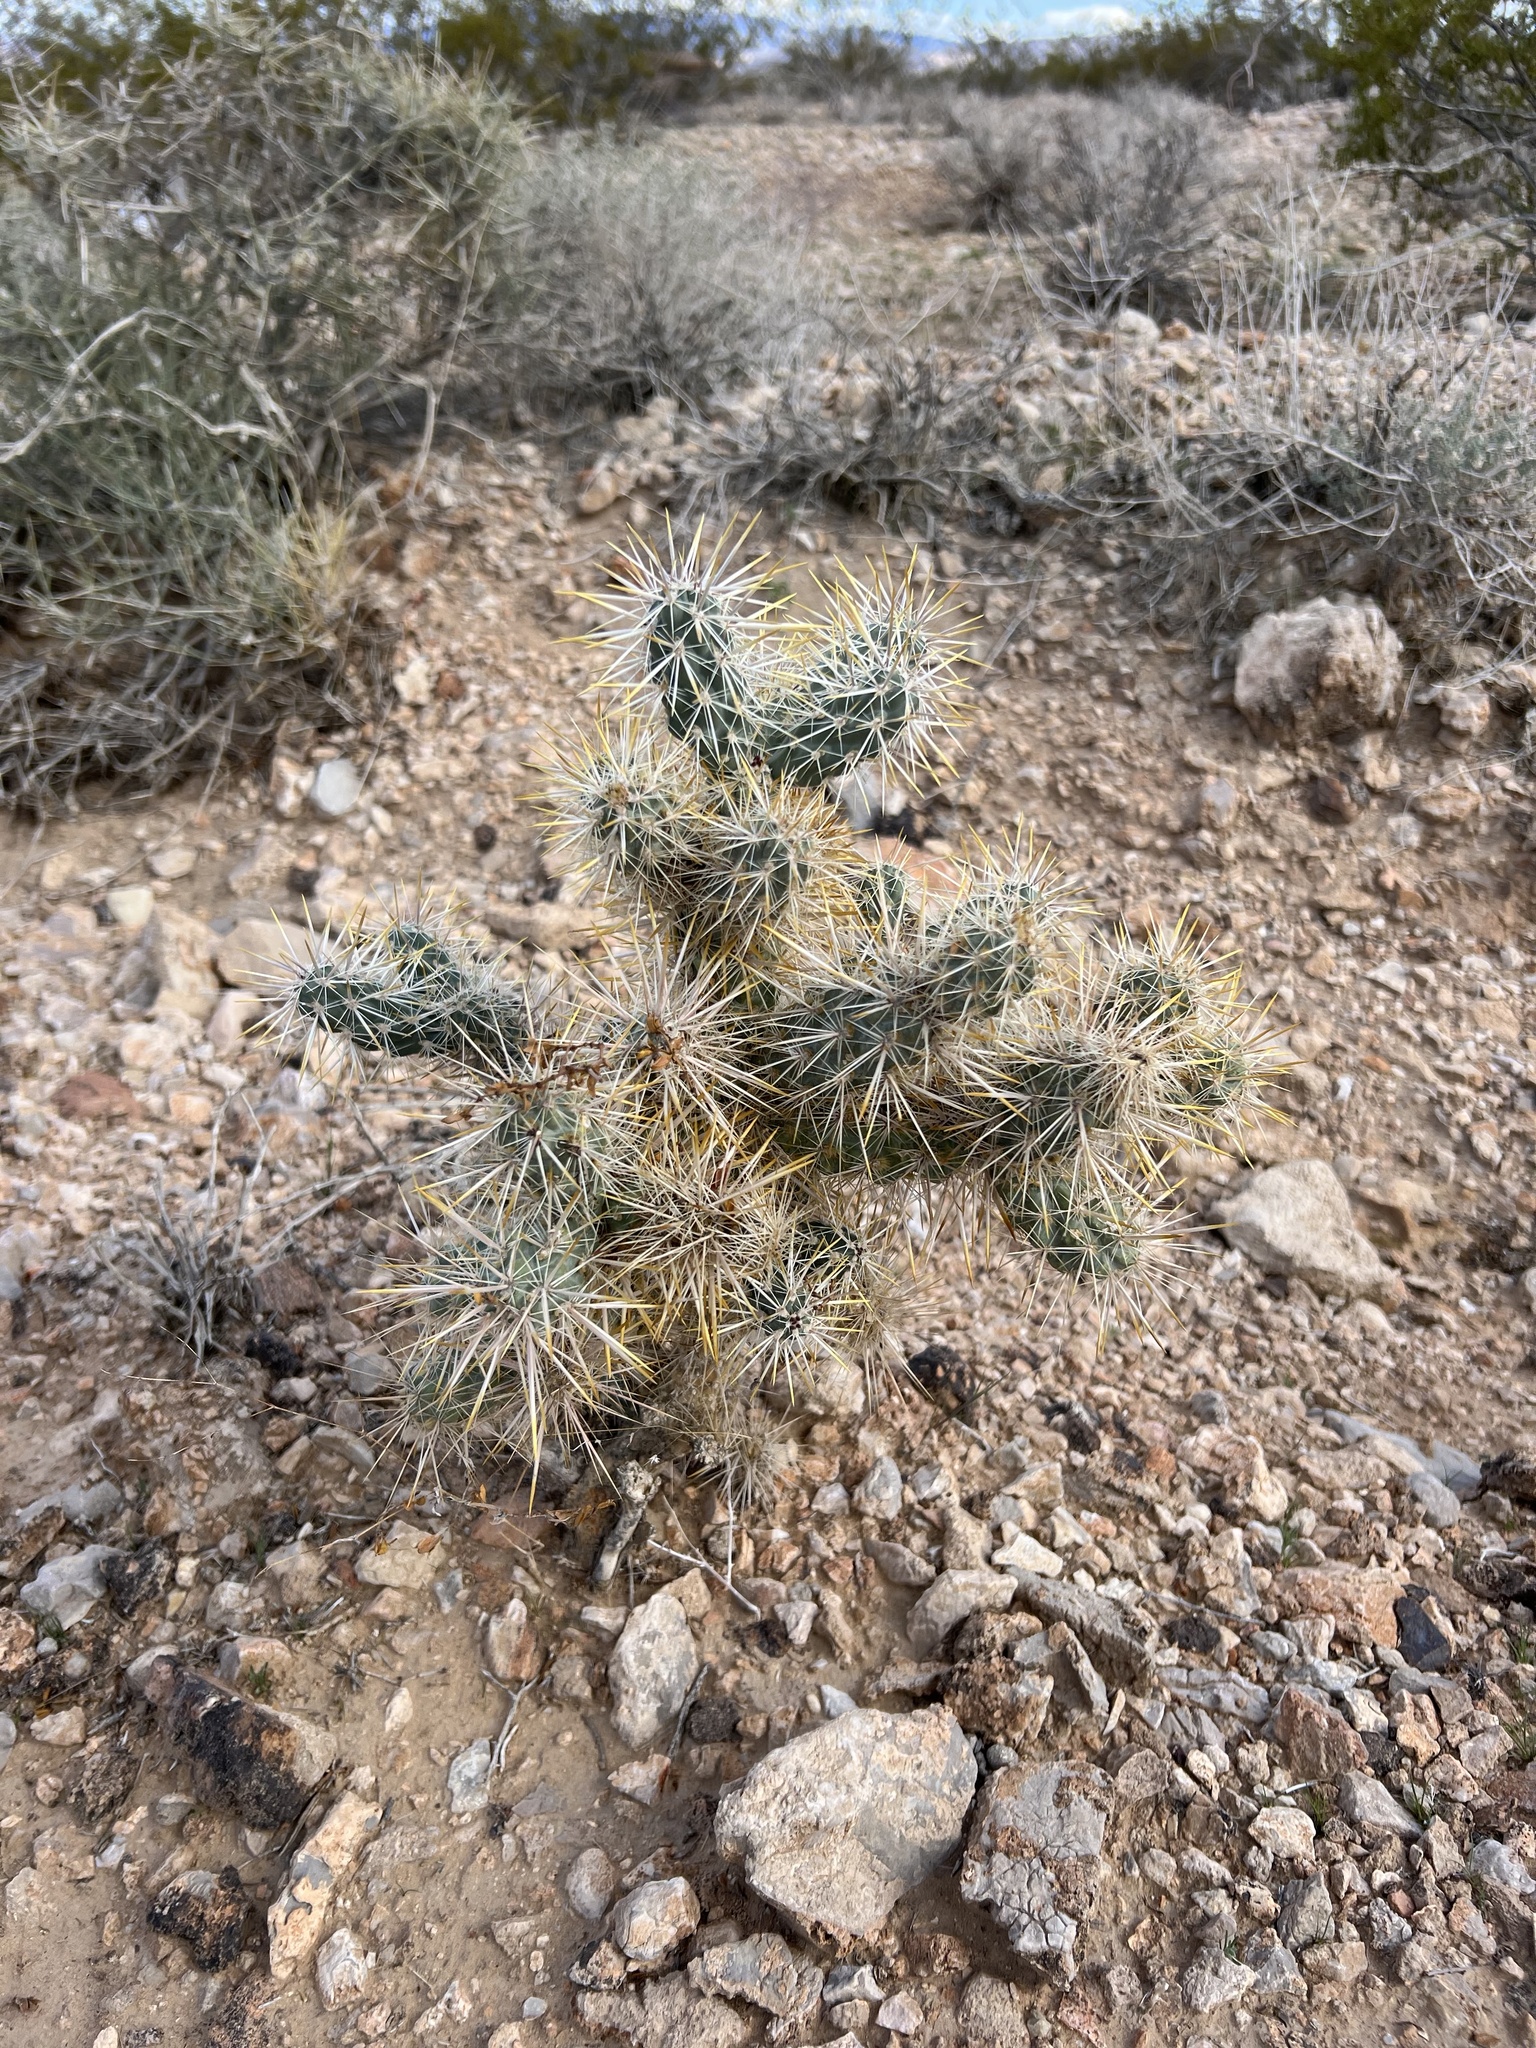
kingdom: Plantae
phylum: Tracheophyta
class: Magnoliopsida
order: Caryophyllales
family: Cactaceae
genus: Cylindropuntia
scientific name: Cylindropuntia echinocarpa
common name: Ground cholla
